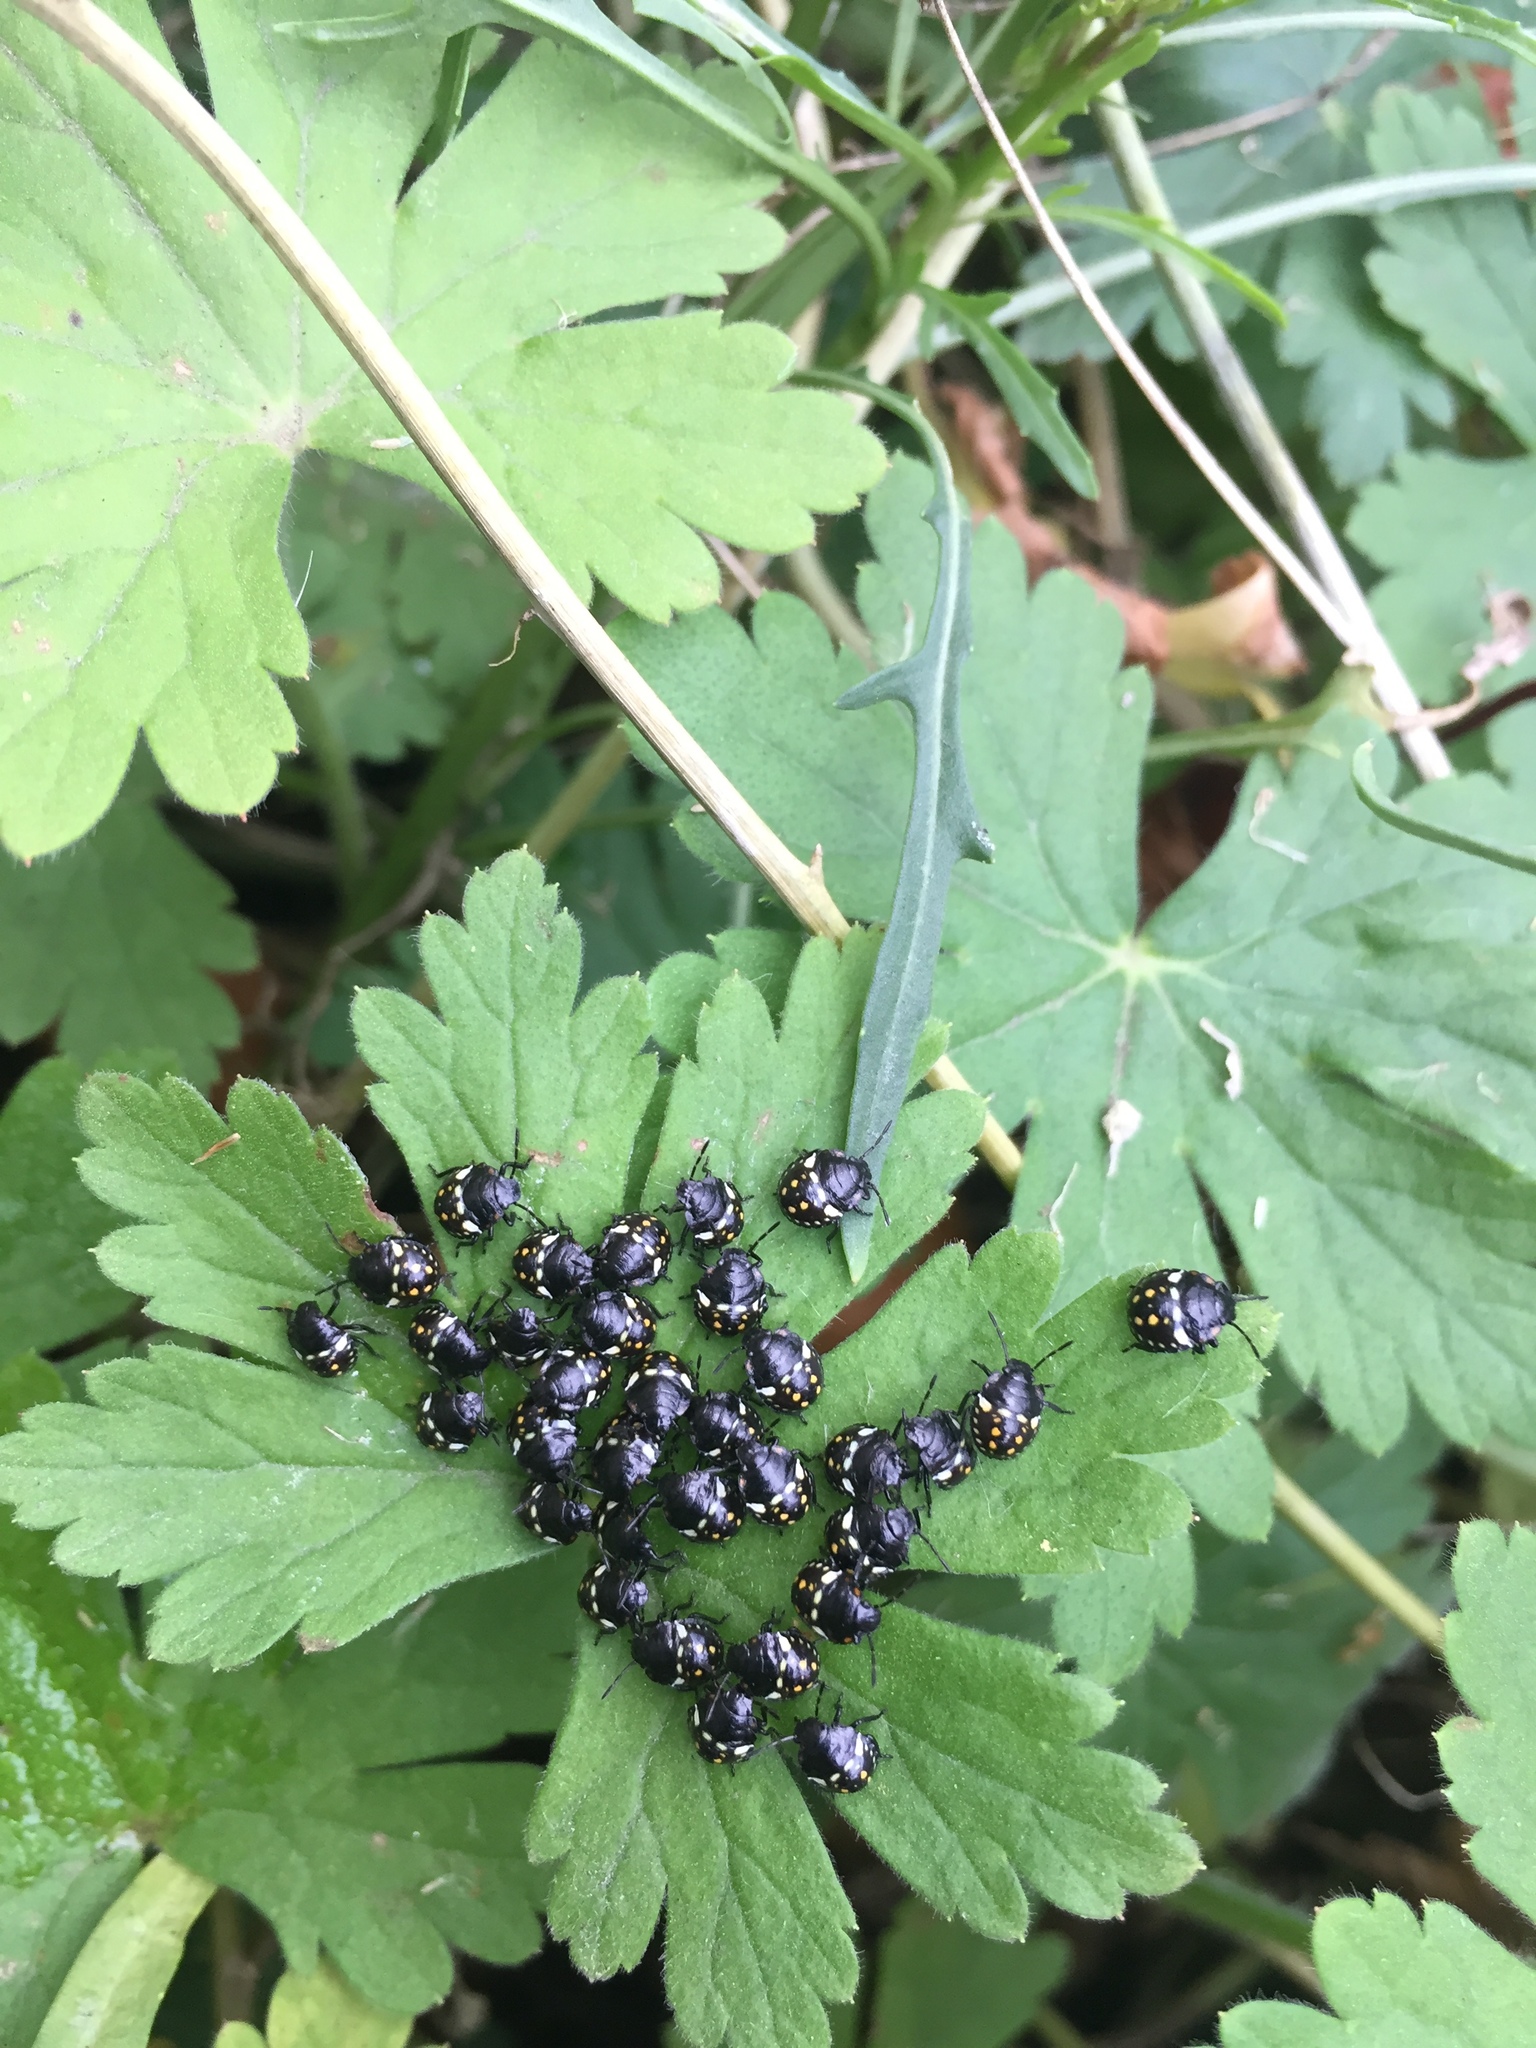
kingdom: Animalia
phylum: Arthropoda
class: Insecta
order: Hemiptera
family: Pentatomidae
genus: Nezara
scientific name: Nezara viridula
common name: Southern green stink bug
